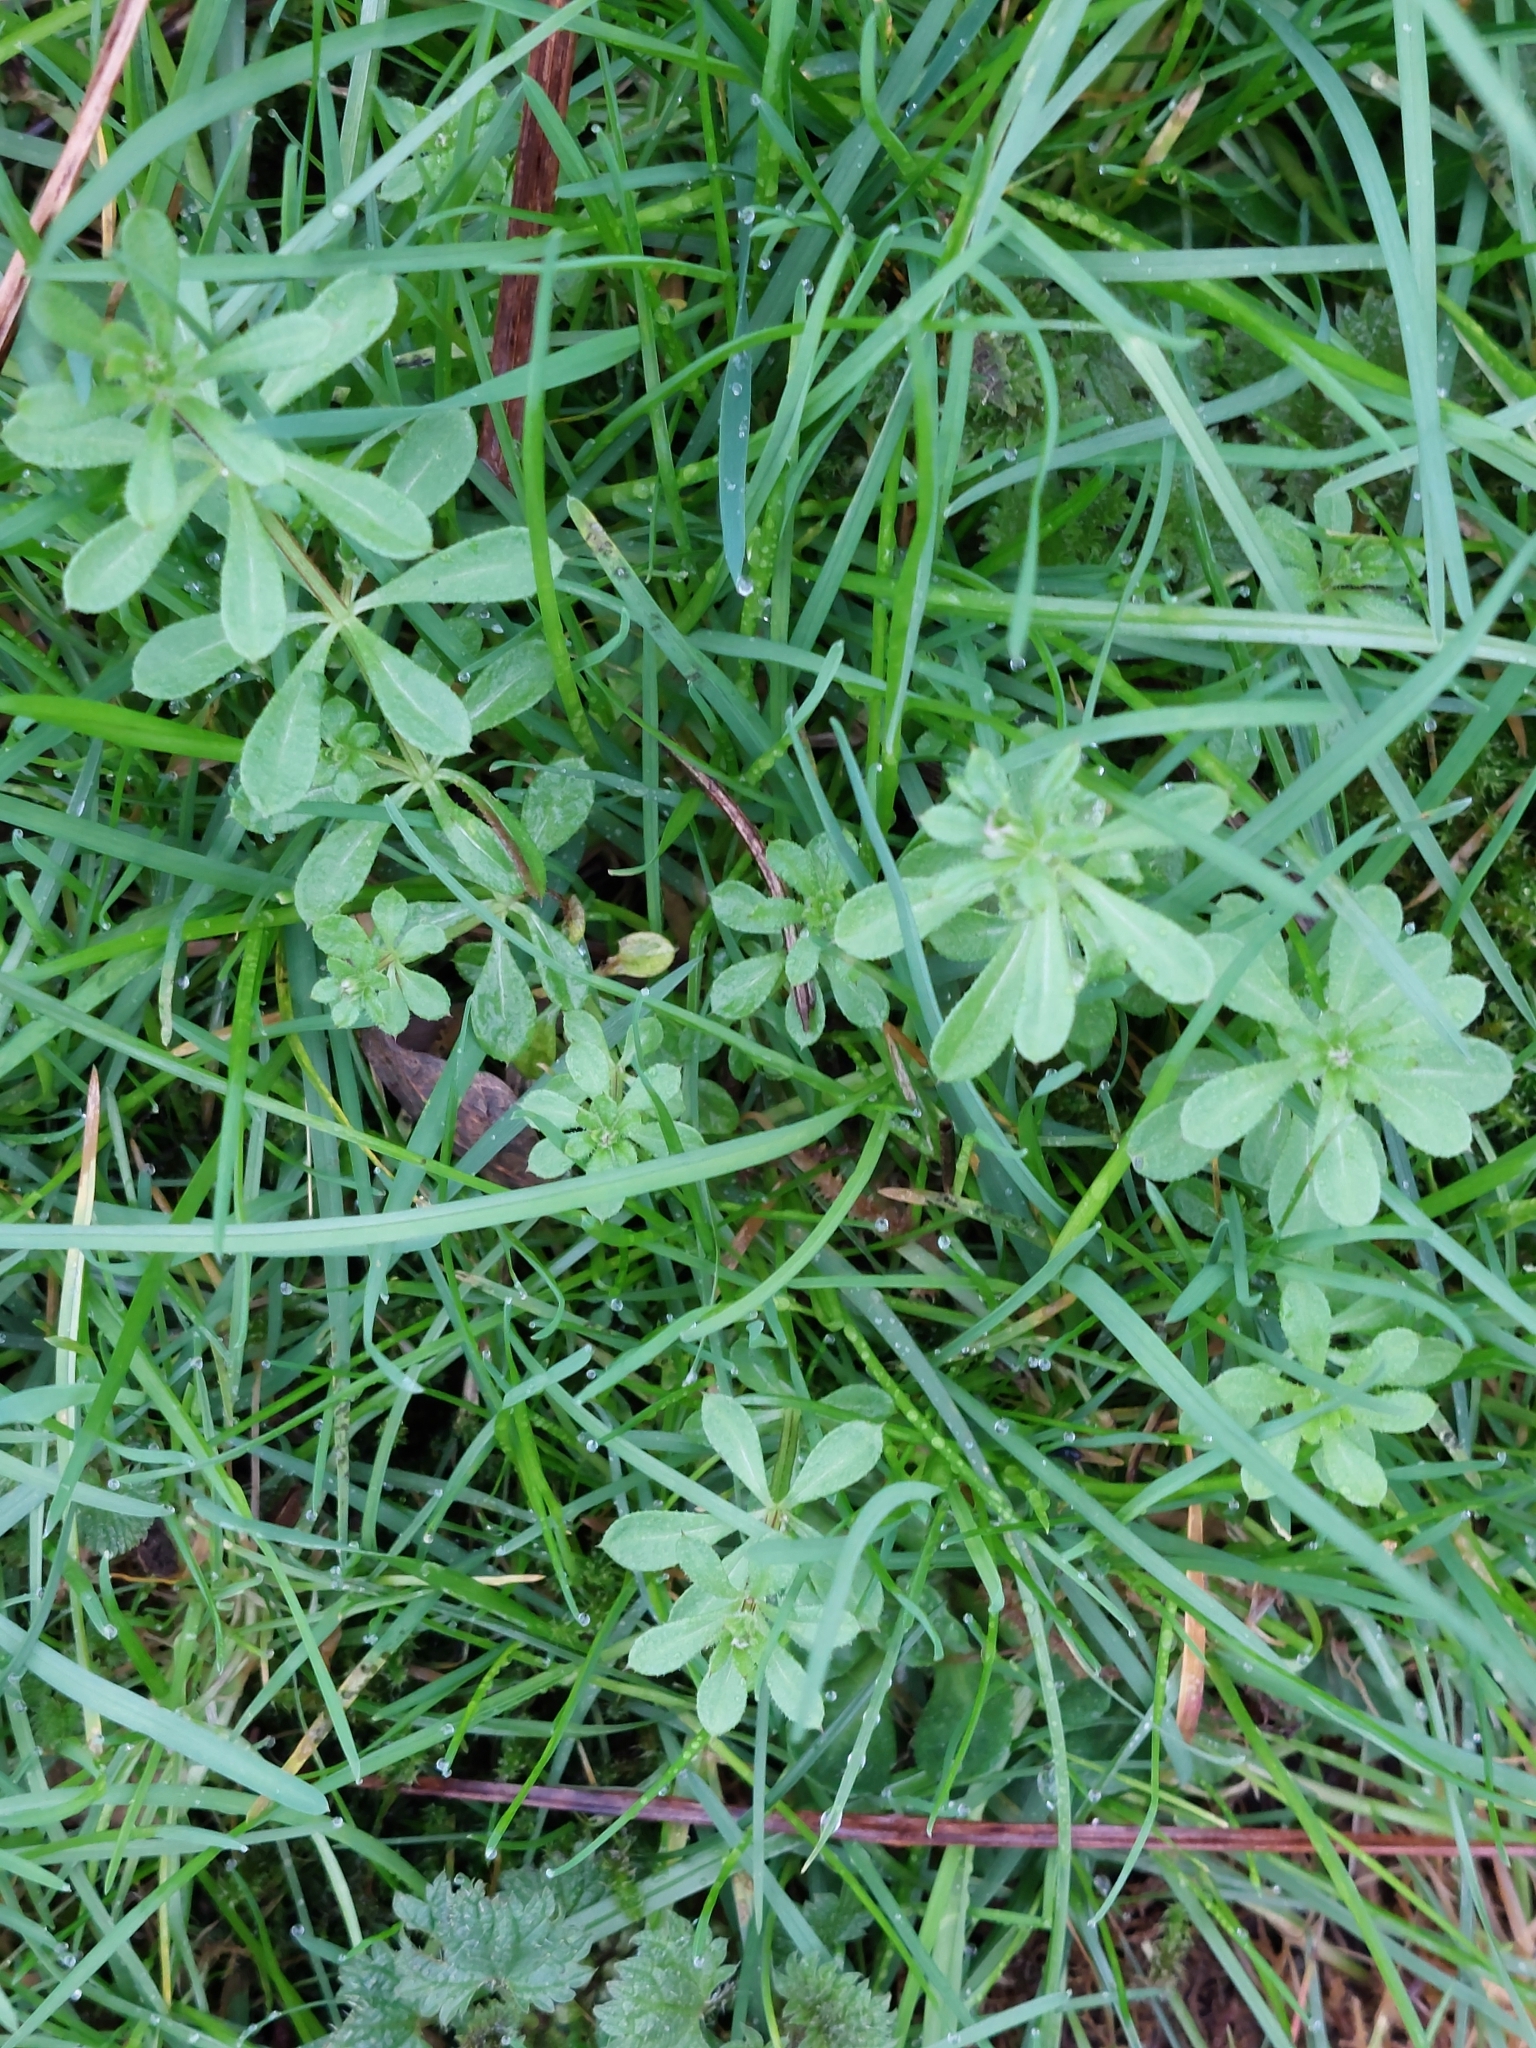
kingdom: Plantae
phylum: Tracheophyta
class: Magnoliopsida
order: Gentianales
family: Rubiaceae
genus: Galium
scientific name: Galium aparine
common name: Cleavers
